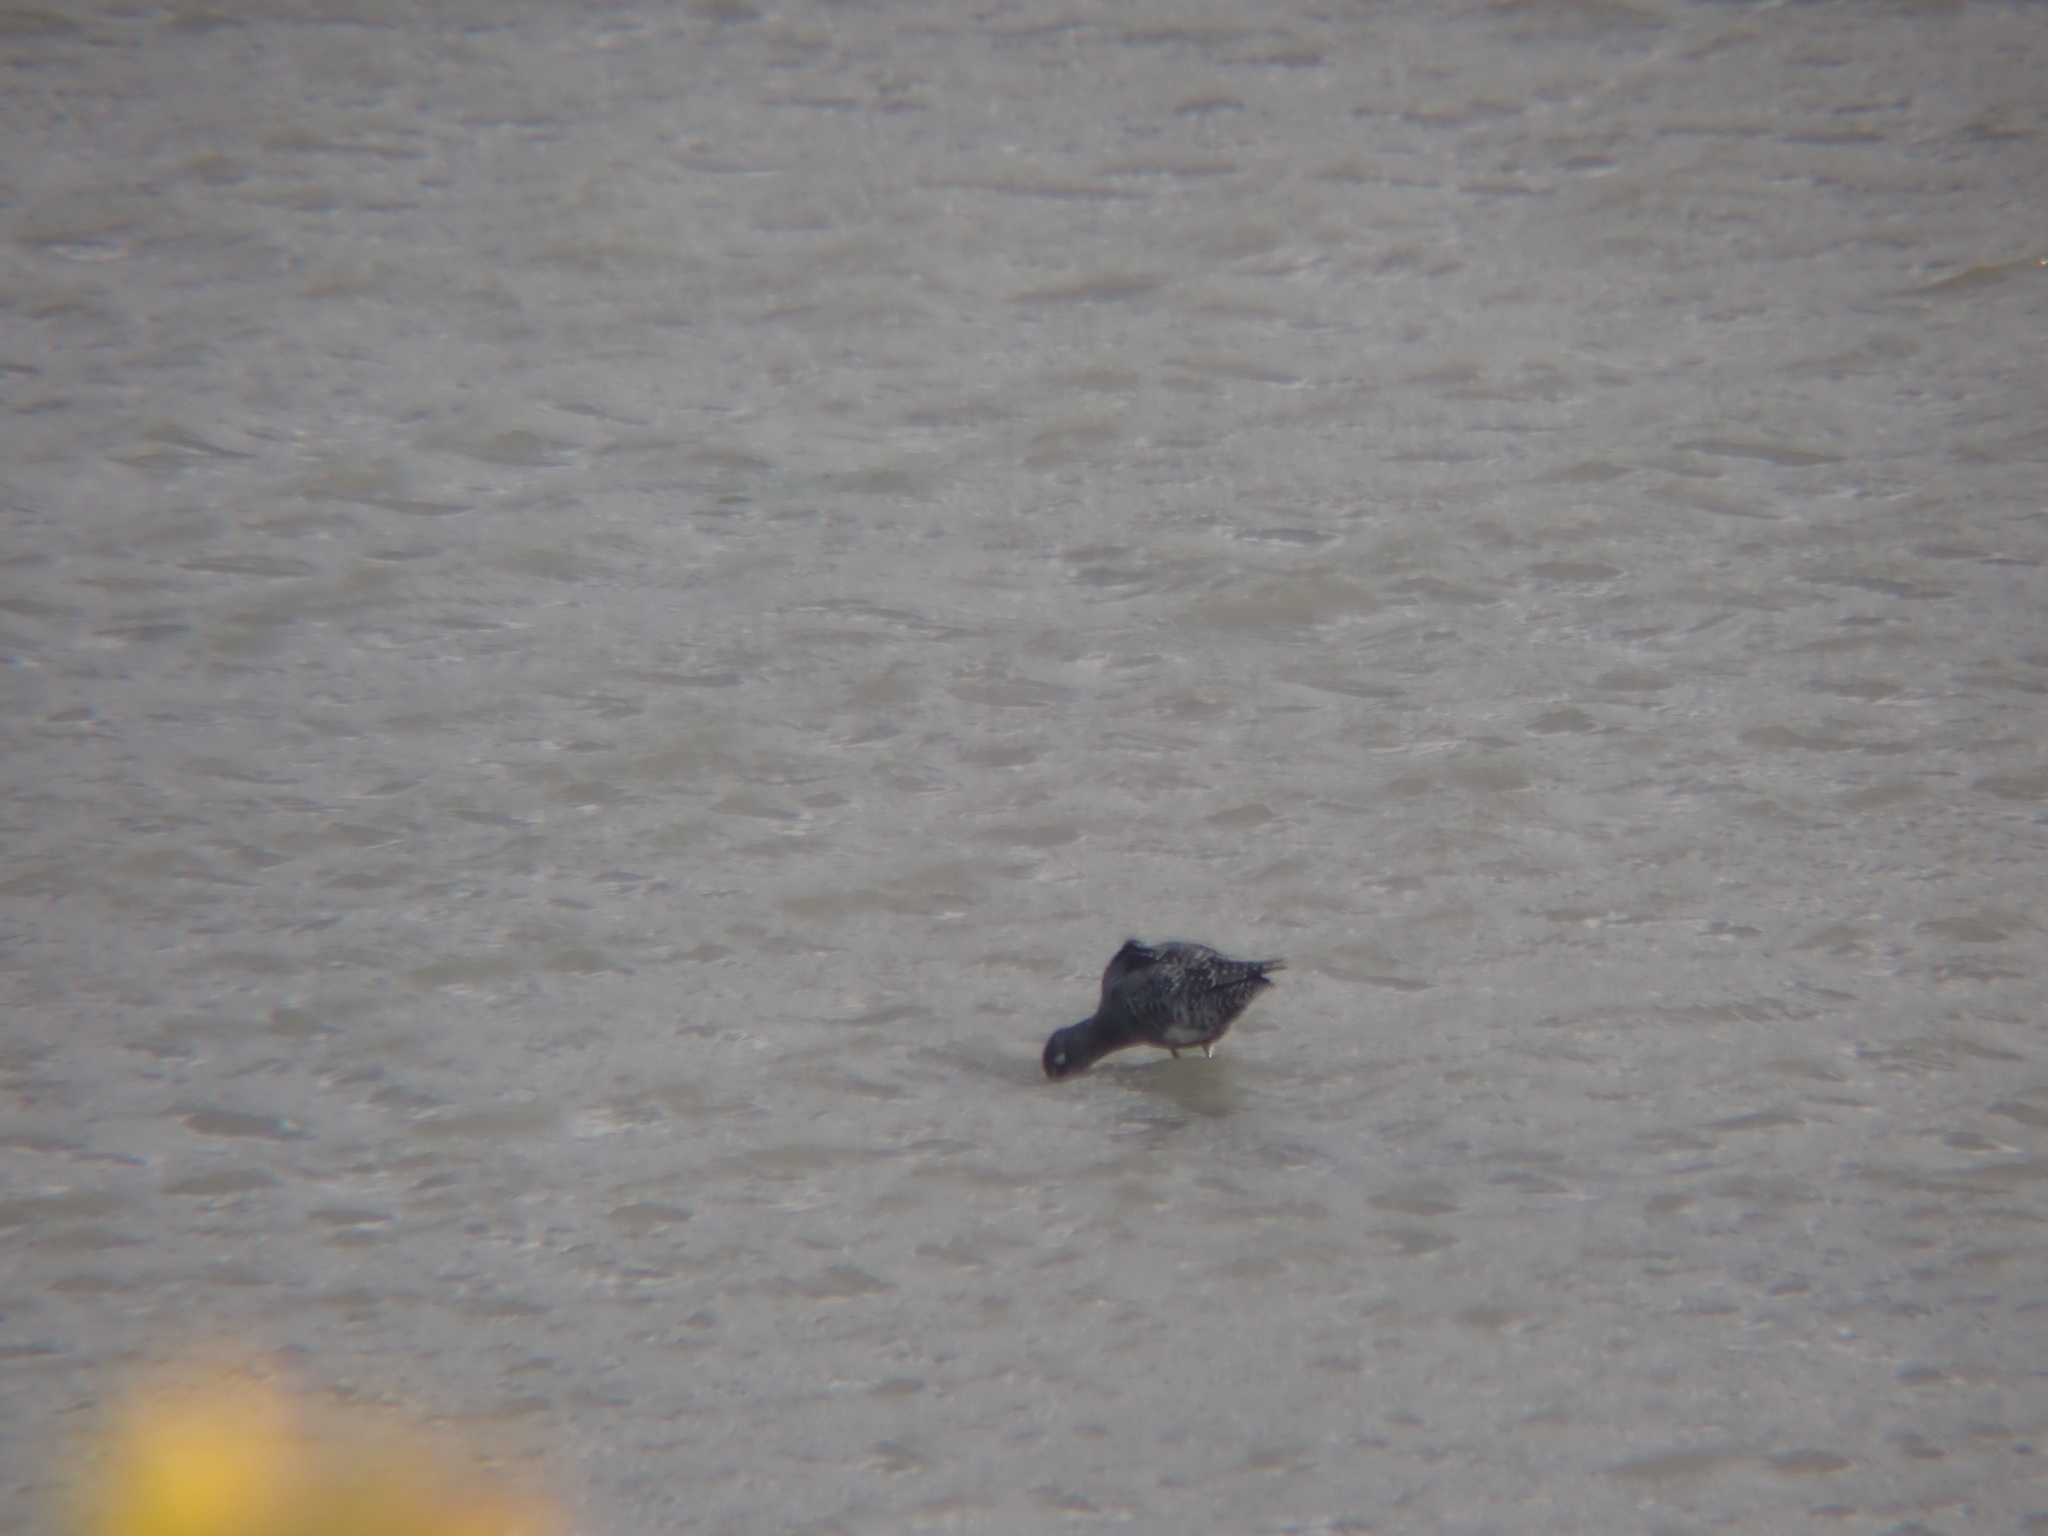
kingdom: Animalia
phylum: Chordata
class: Aves
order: Charadriiformes
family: Scolopacidae
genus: Tringa
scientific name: Tringa erythropus
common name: Spotted redshank
